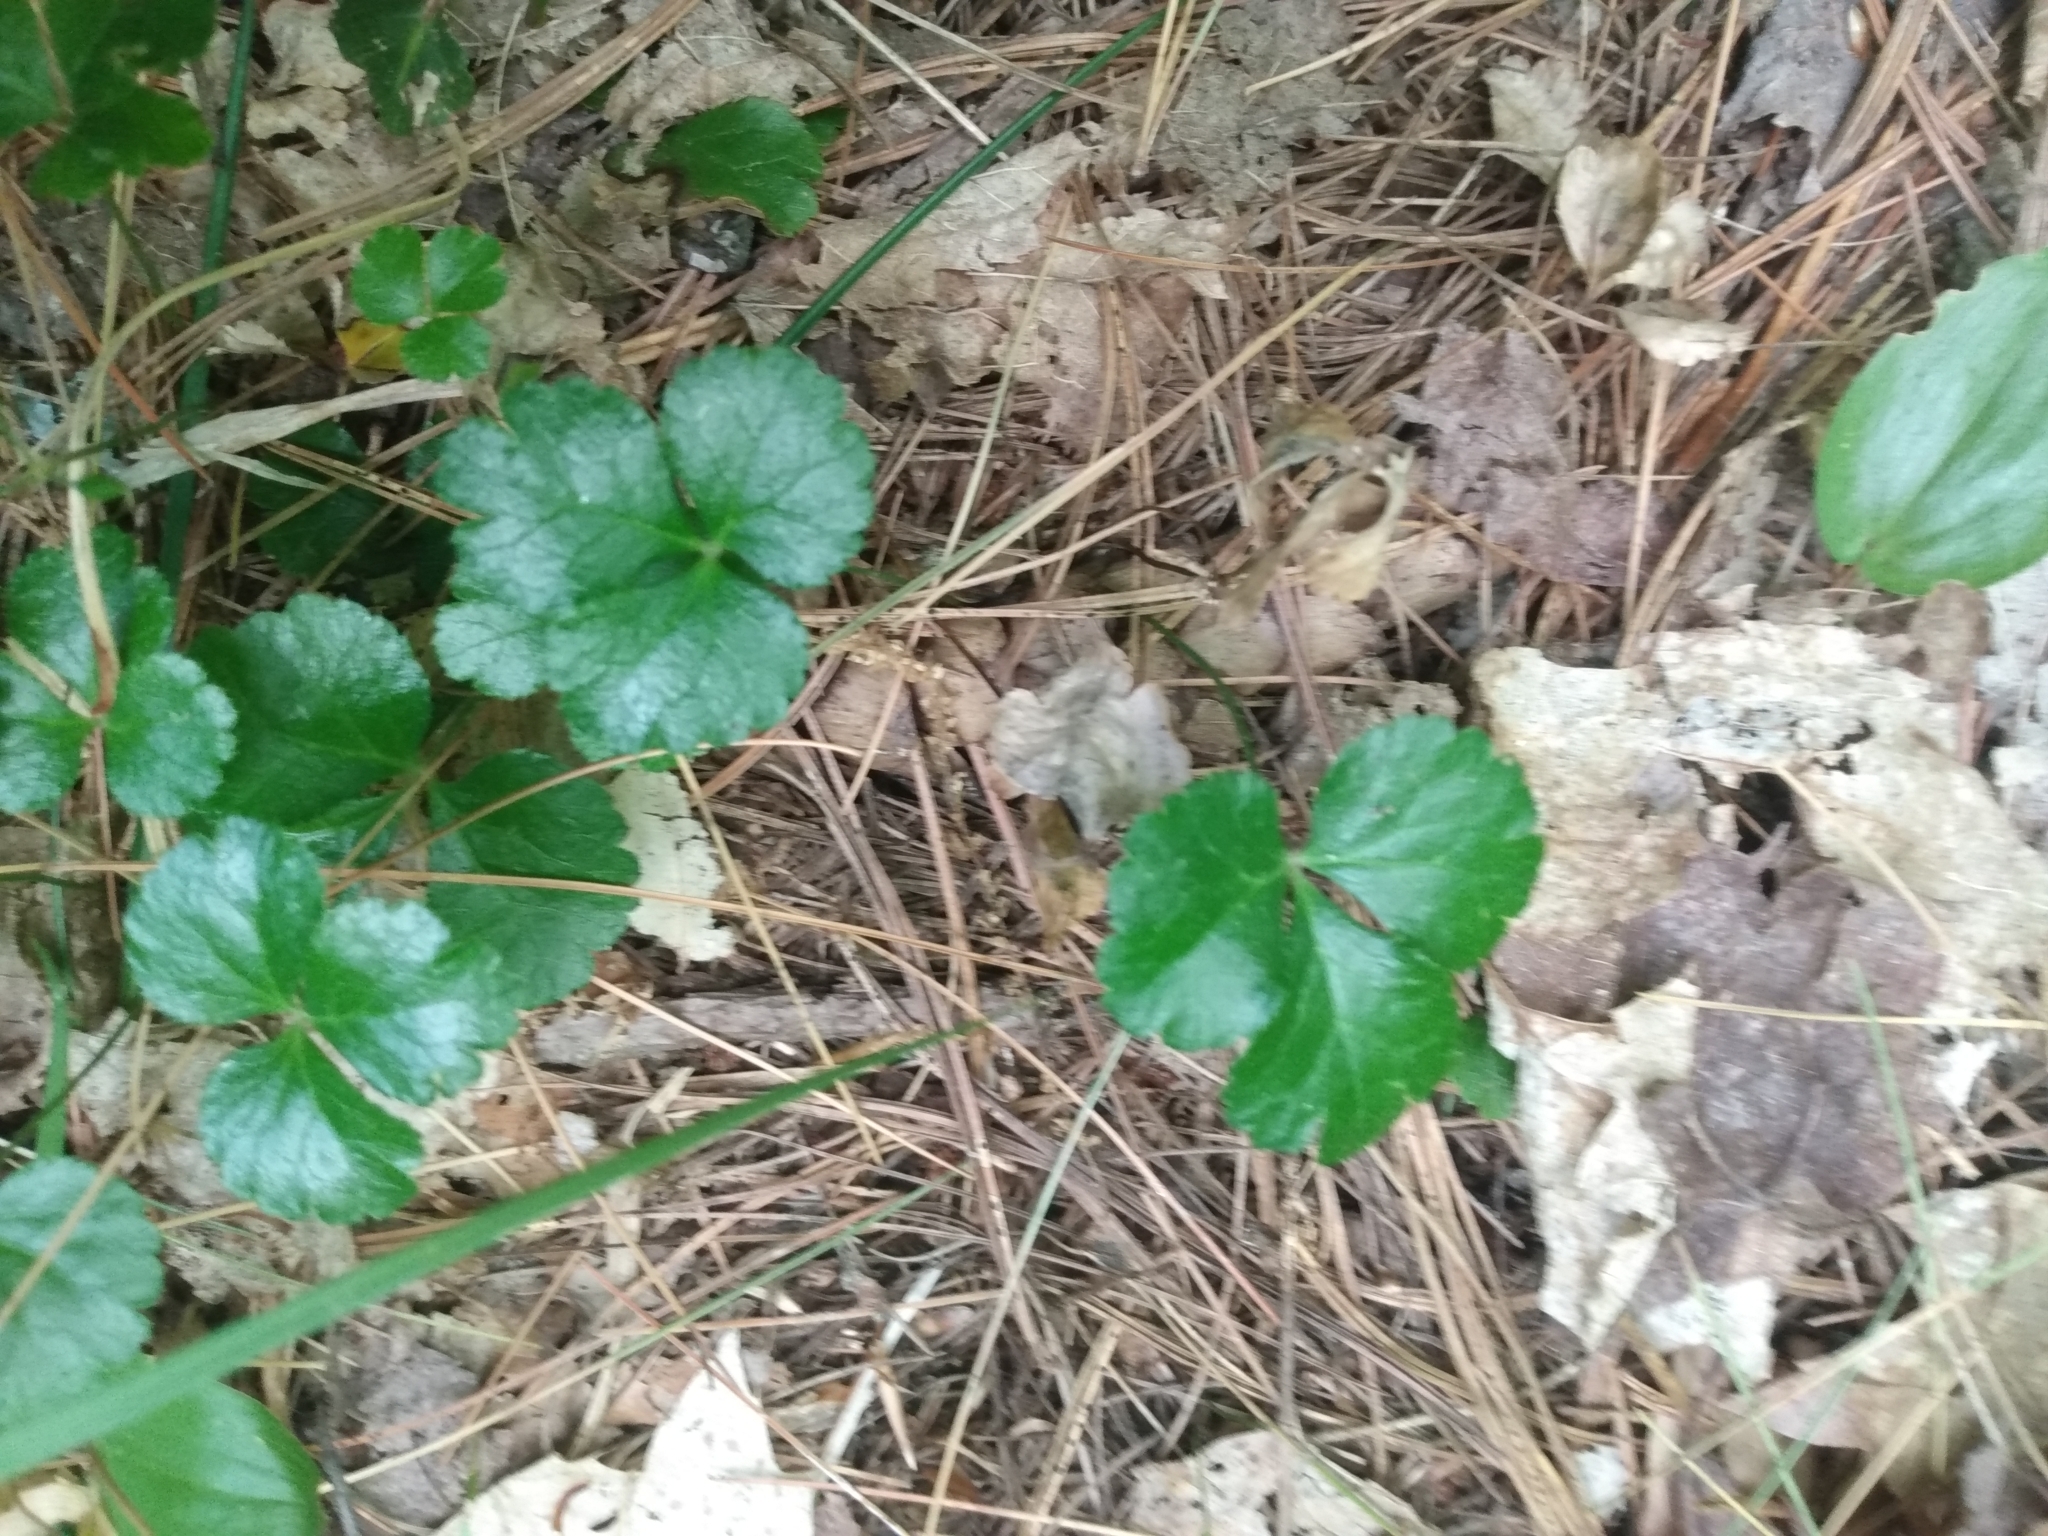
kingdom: Plantae
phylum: Tracheophyta
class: Magnoliopsida
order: Ranunculales
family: Ranunculaceae
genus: Coptis
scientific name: Coptis trifolia
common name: Canker-root
